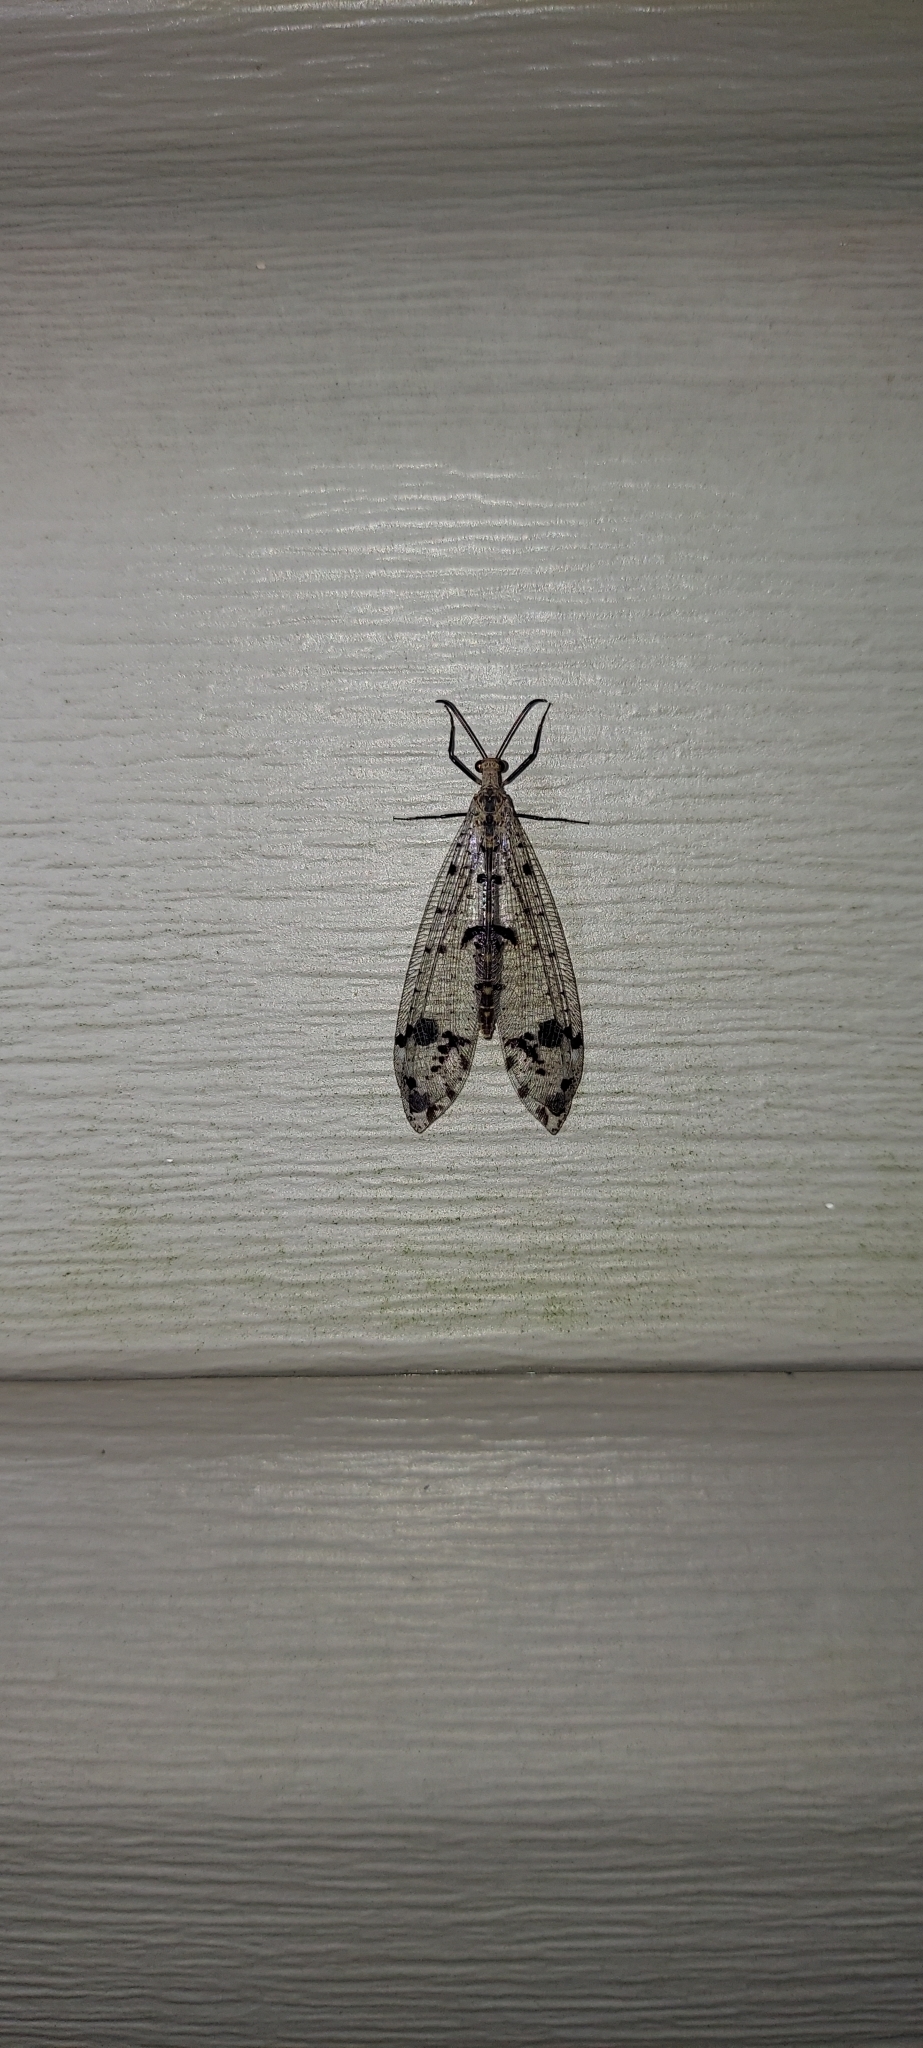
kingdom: Animalia
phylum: Arthropoda
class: Insecta
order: Neuroptera
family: Myrmeleontidae
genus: Dendroleon
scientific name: Dendroleon obsoletus
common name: Eastern spotted-winged antlion
